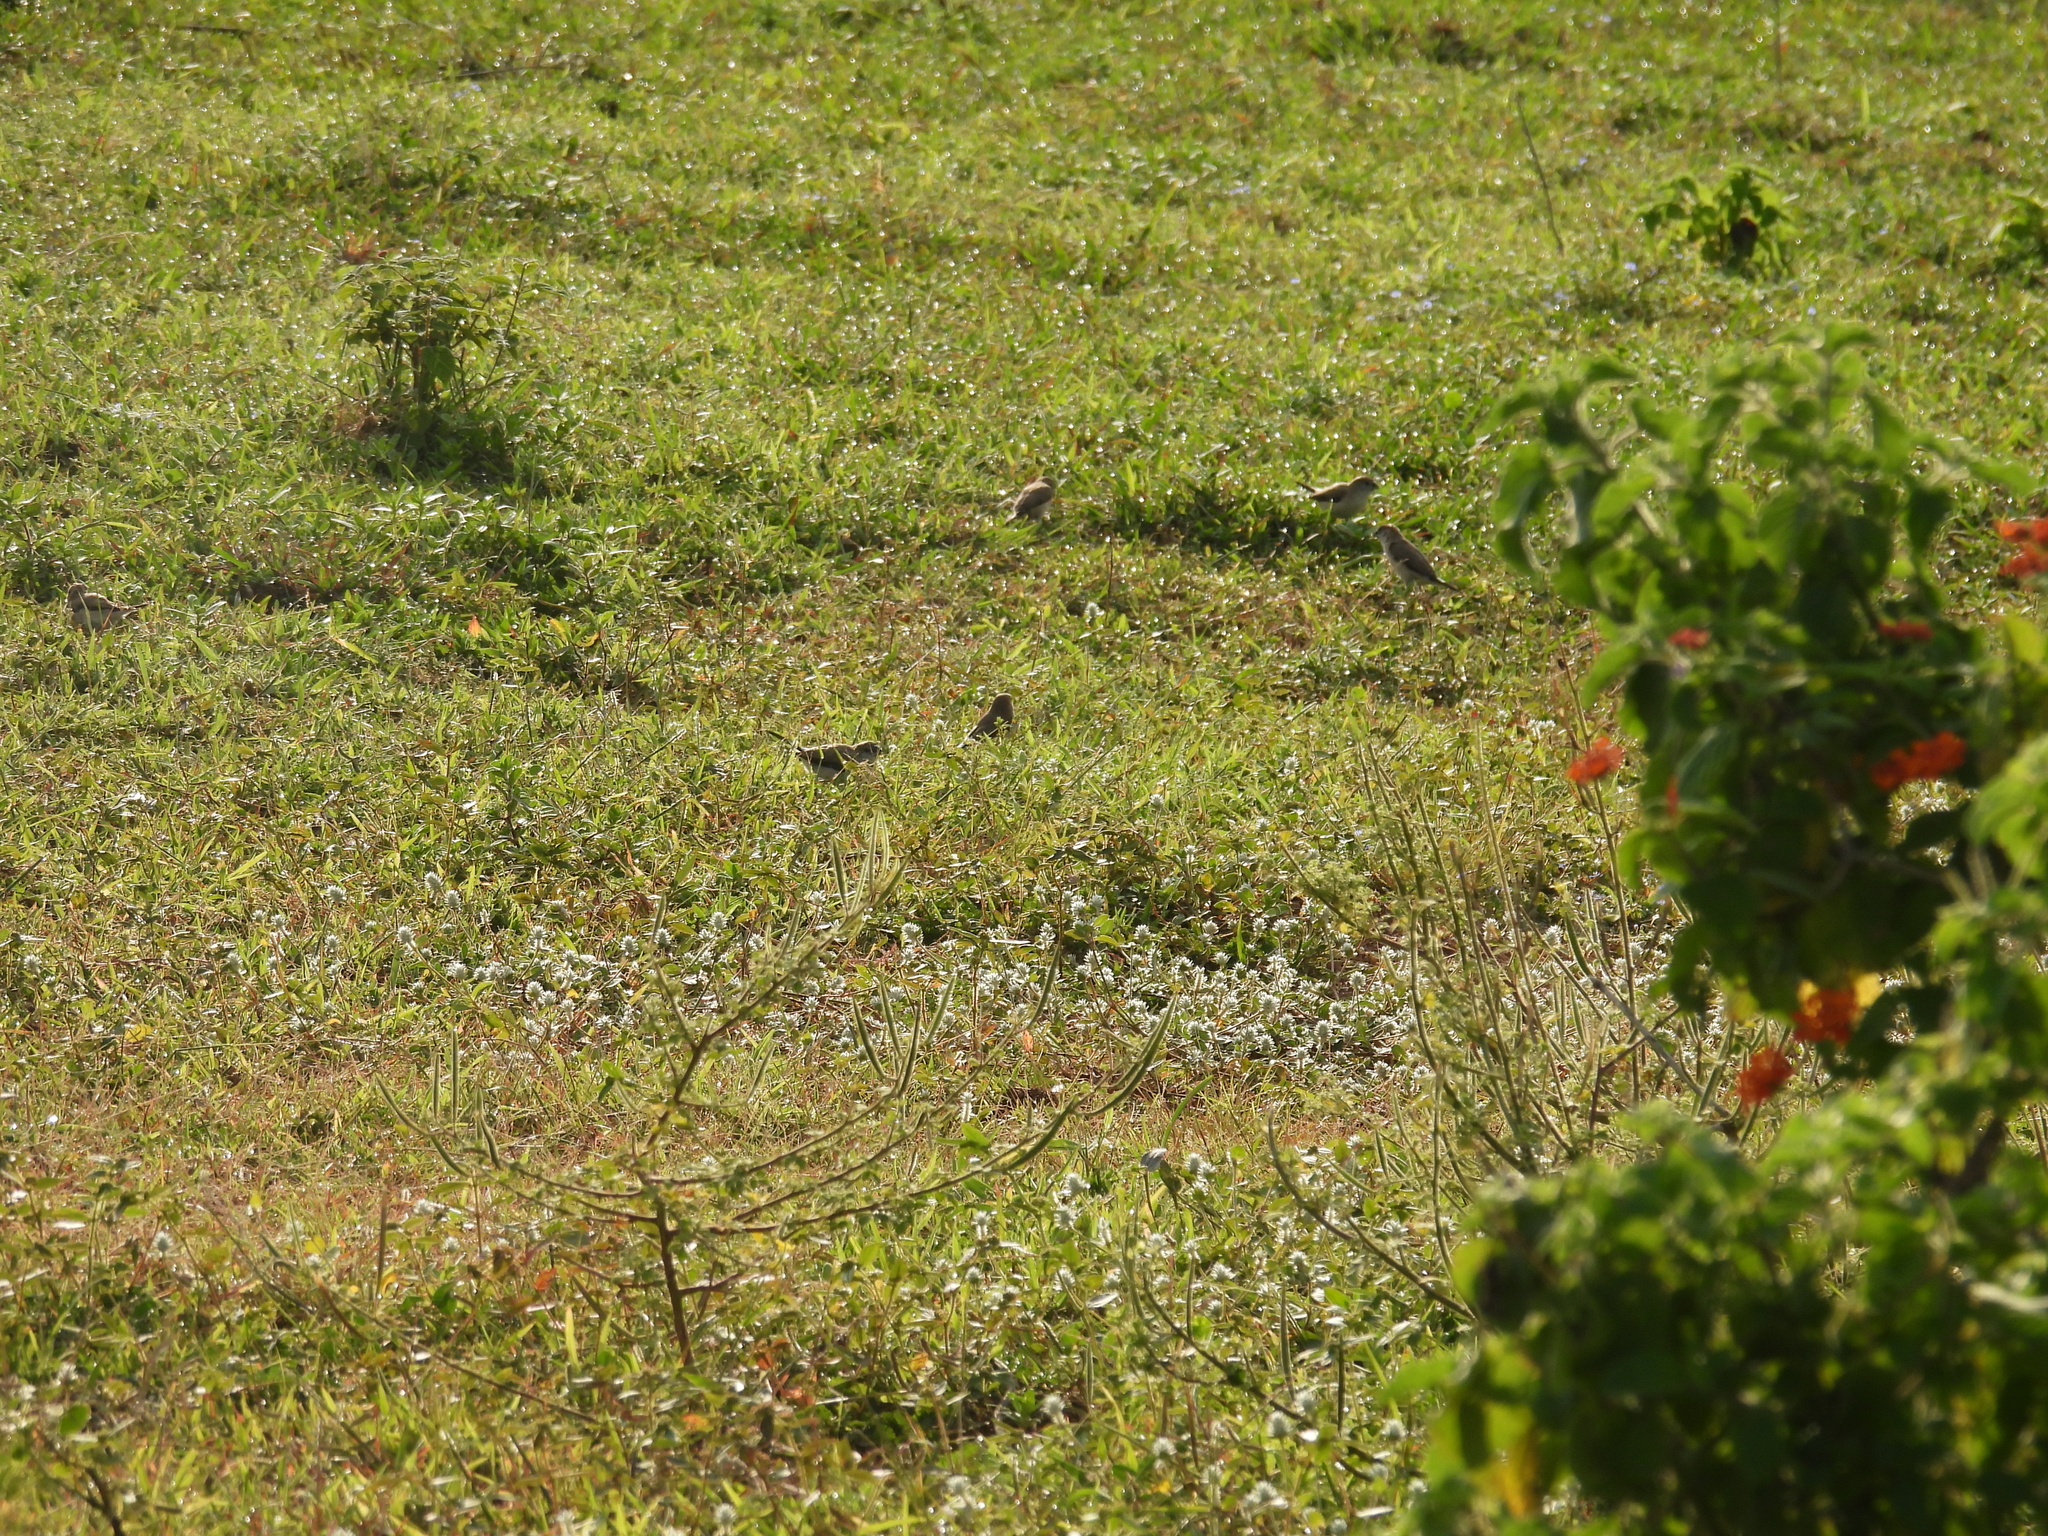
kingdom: Animalia
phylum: Chordata
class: Aves
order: Passeriformes
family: Estrildidae
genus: Euodice
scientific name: Euodice malabarica
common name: Indian silverbill
